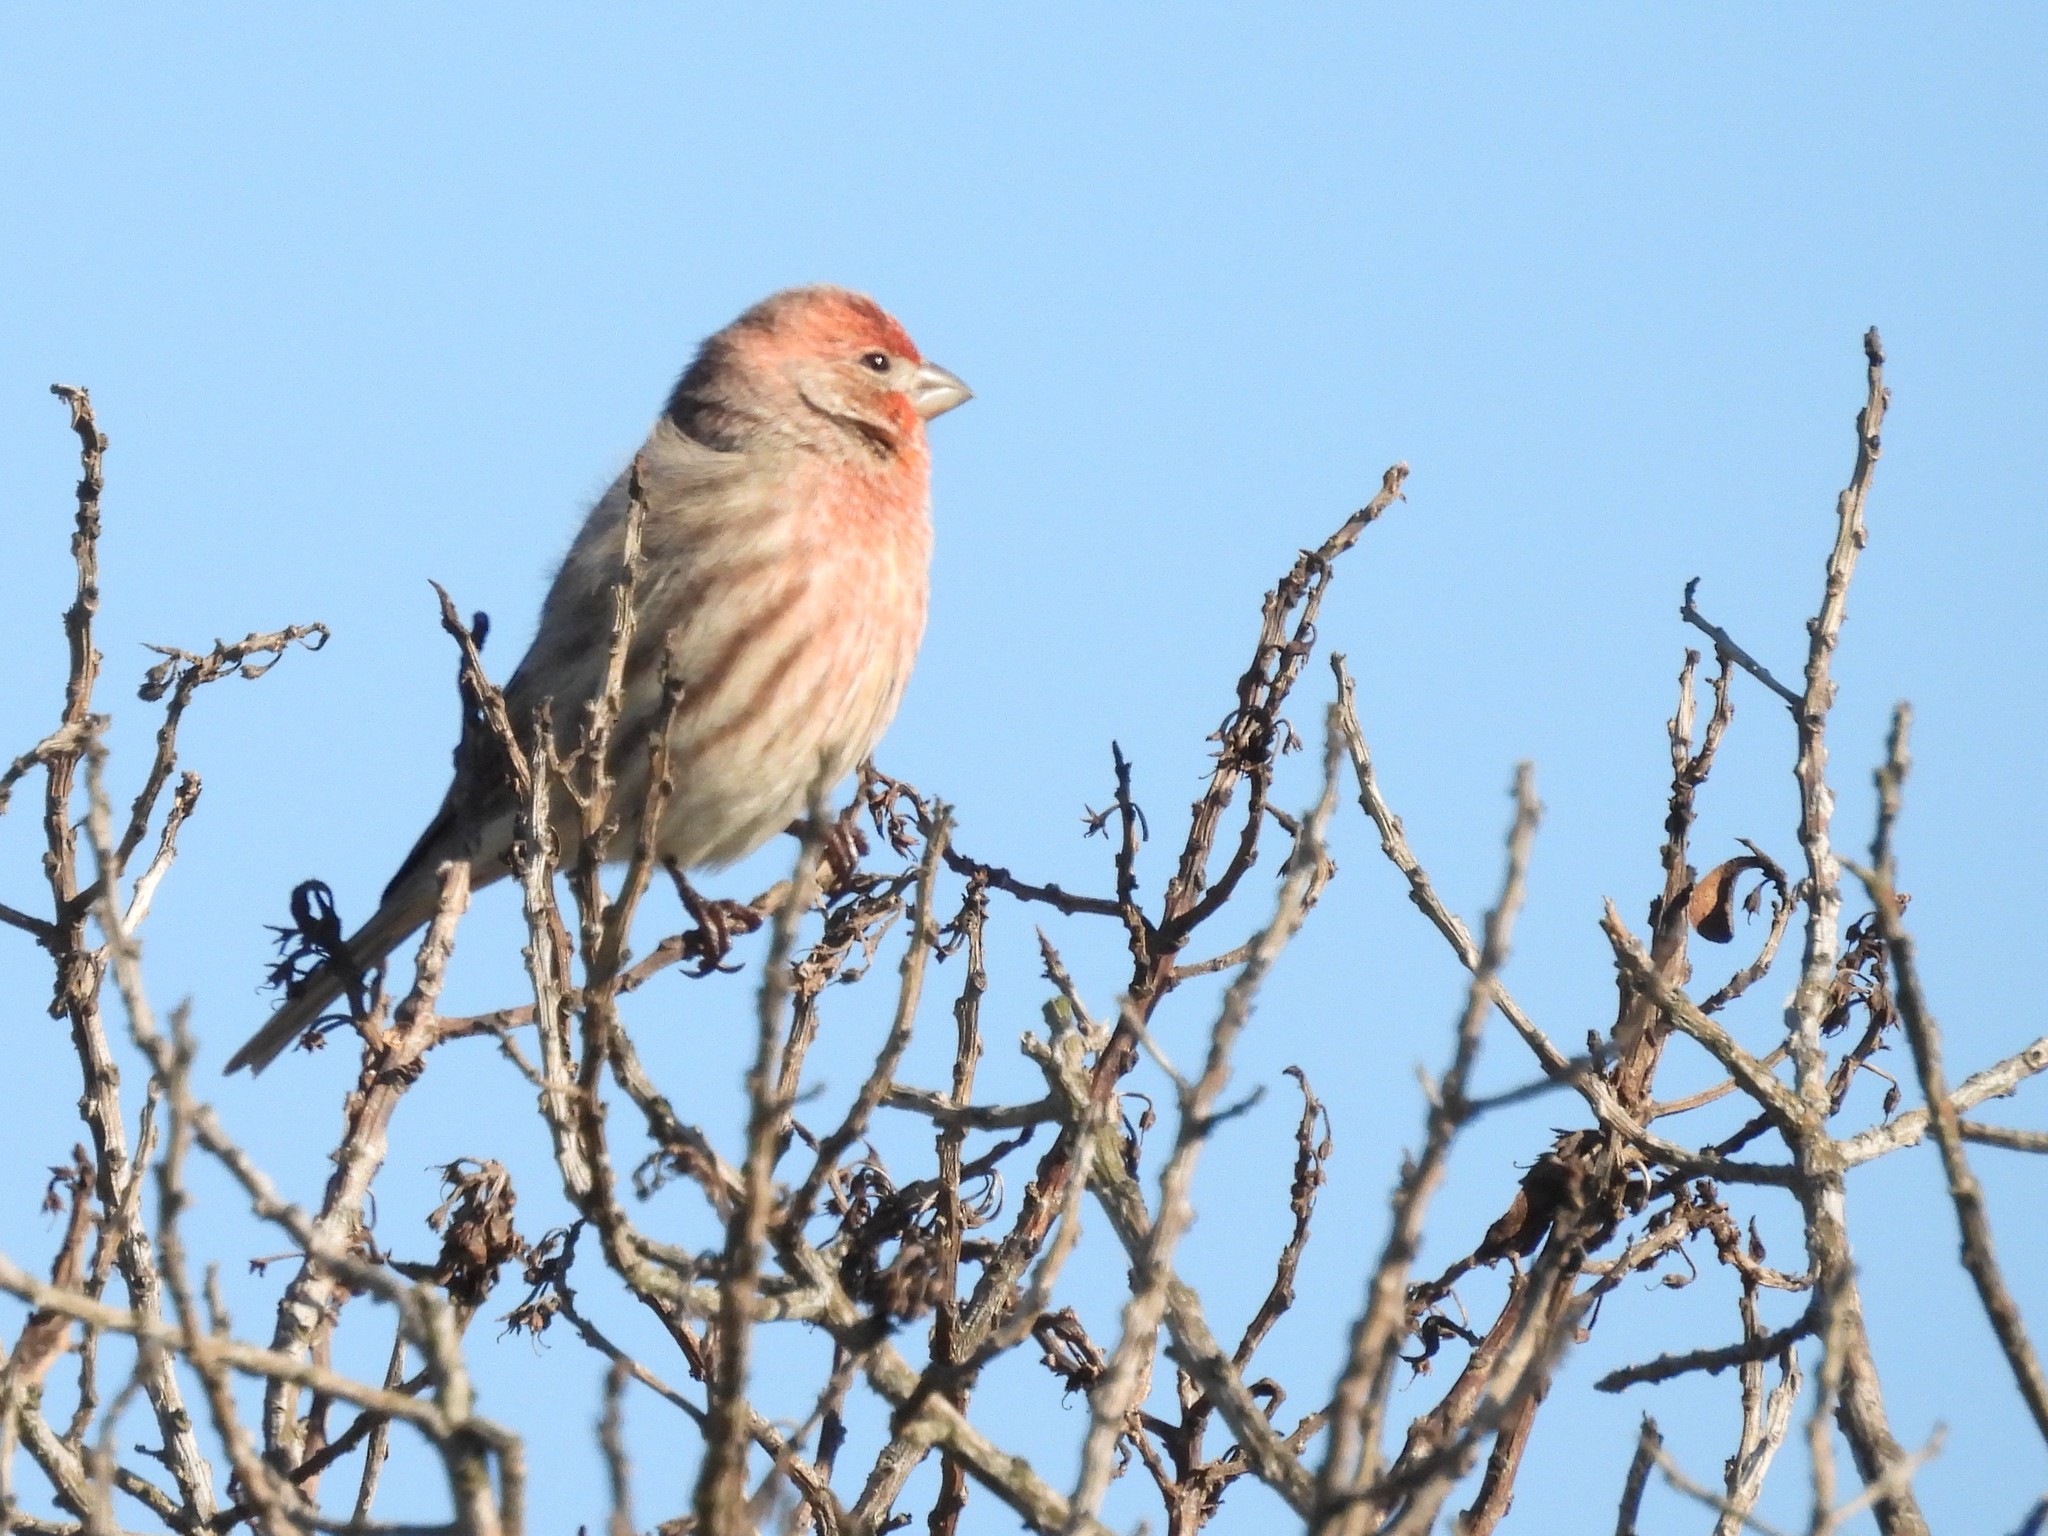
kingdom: Animalia
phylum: Chordata
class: Aves
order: Passeriformes
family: Fringillidae
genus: Haemorhous
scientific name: Haemorhous mexicanus
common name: House finch
